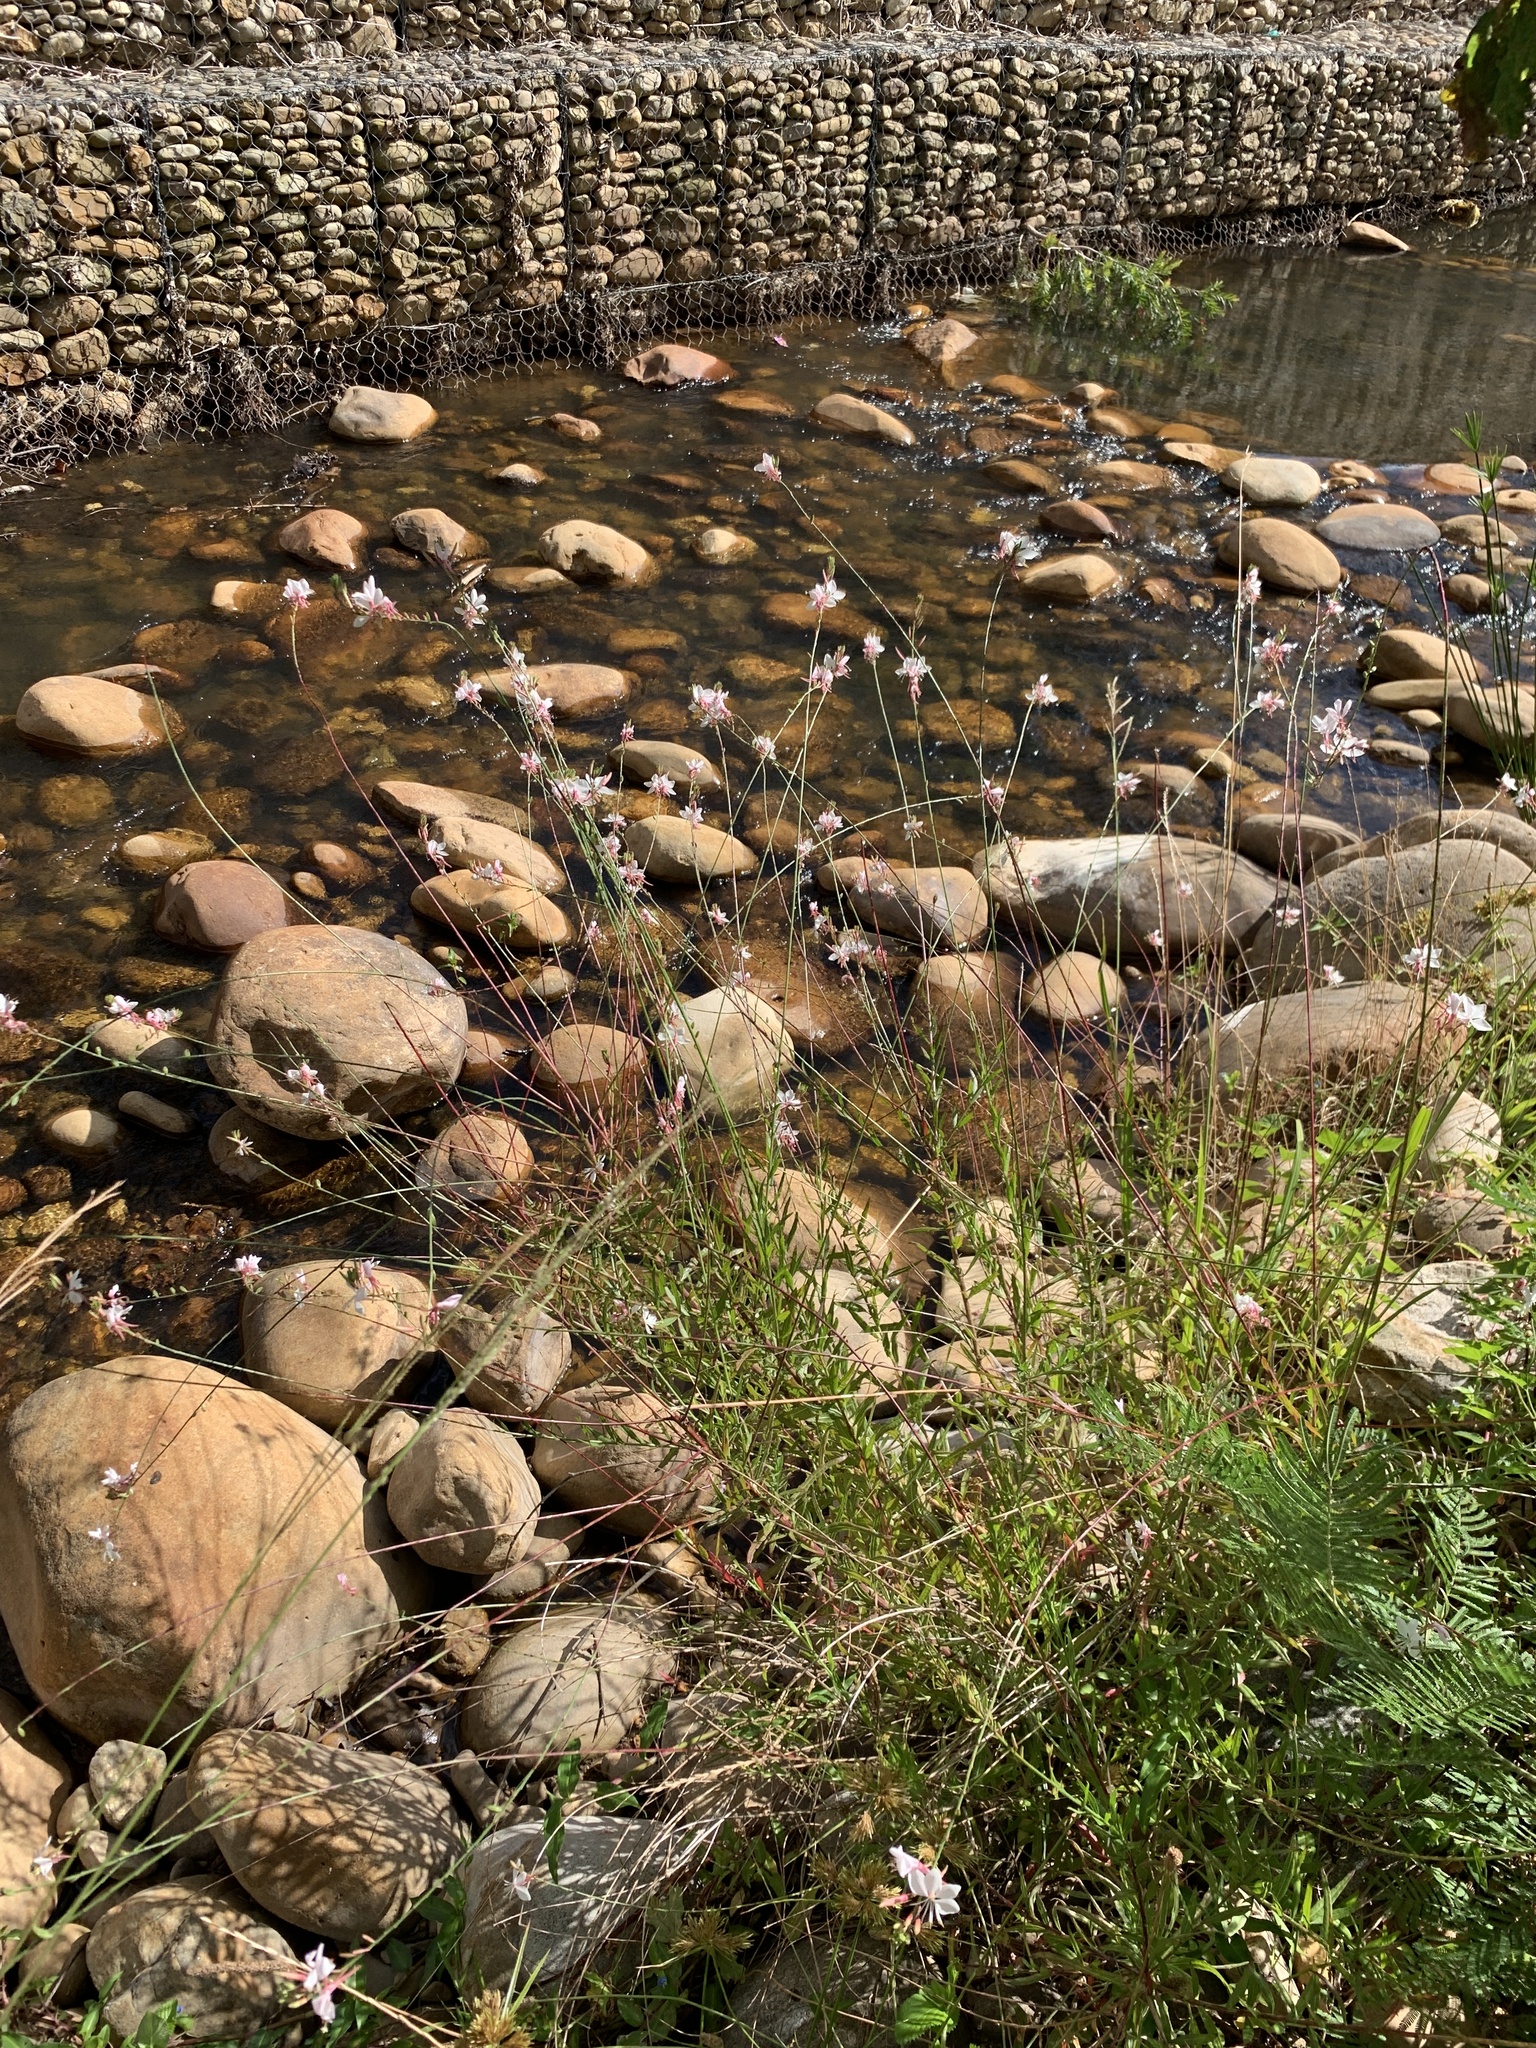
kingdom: Plantae
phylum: Tracheophyta
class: Magnoliopsida
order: Myrtales
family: Onagraceae
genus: Oenothera
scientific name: Oenothera lindheimeri
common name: Lindheimer's beeblossom
